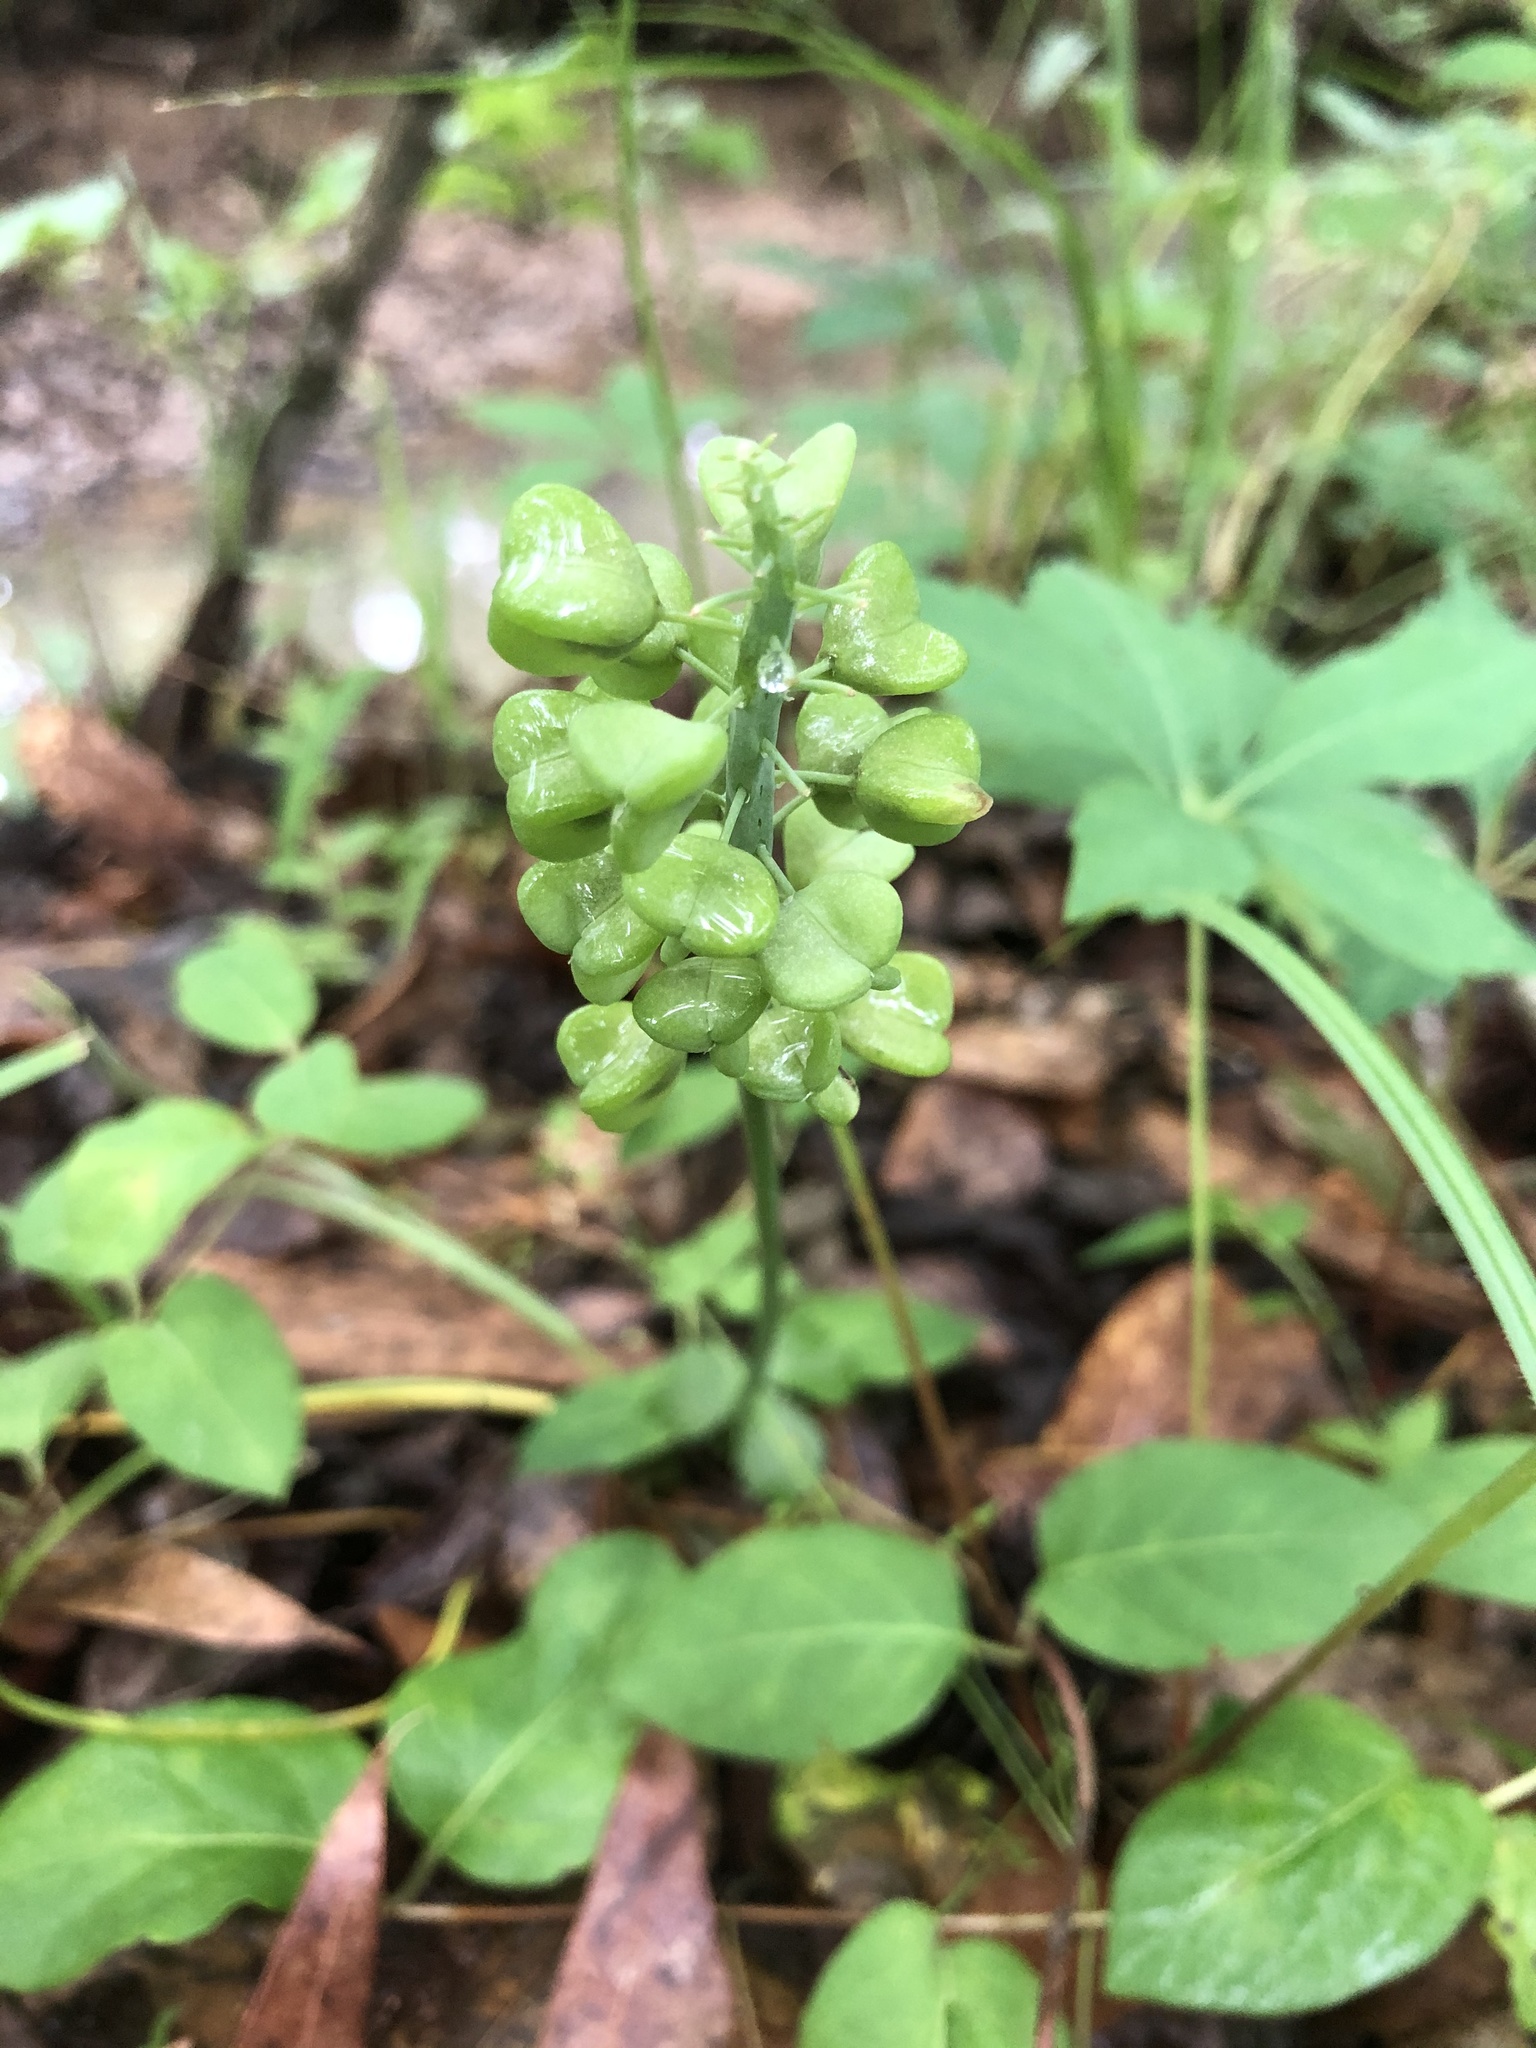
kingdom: Plantae
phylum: Tracheophyta
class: Liliopsida
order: Asparagales
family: Asparagaceae
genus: Muscari
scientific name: Muscari neglectum
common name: Grape-hyacinth
